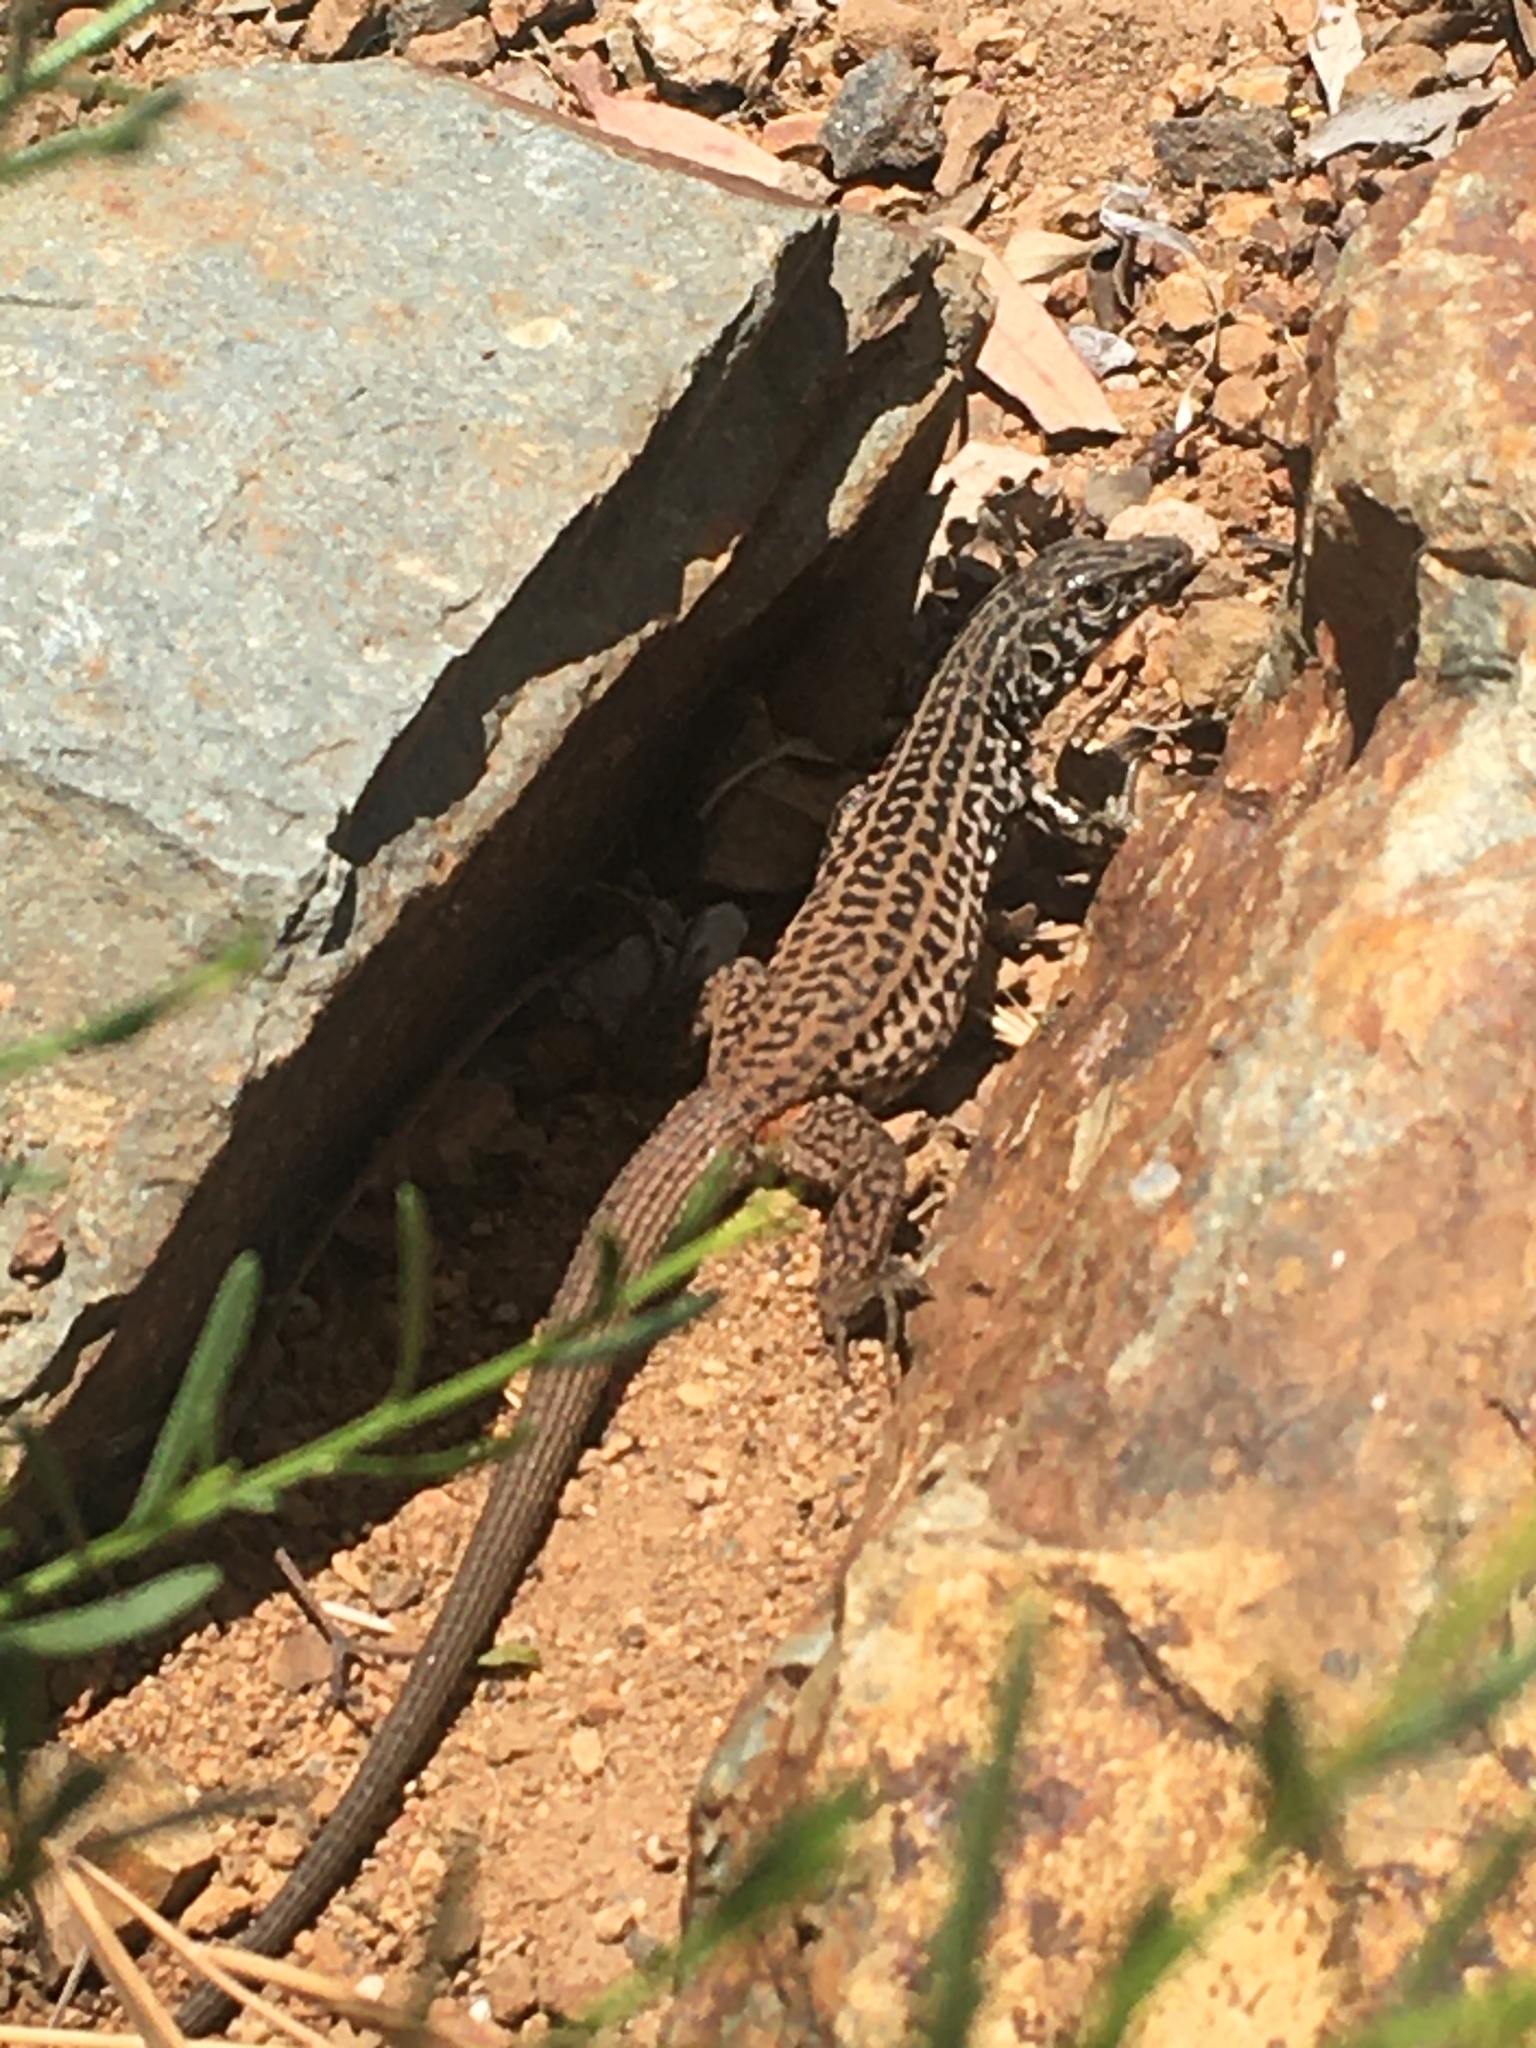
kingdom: Animalia
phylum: Chordata
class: Squamata
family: Teiidae
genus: Aspidoscelis
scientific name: Aspidoscelis tigris
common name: Tiger whiptail
